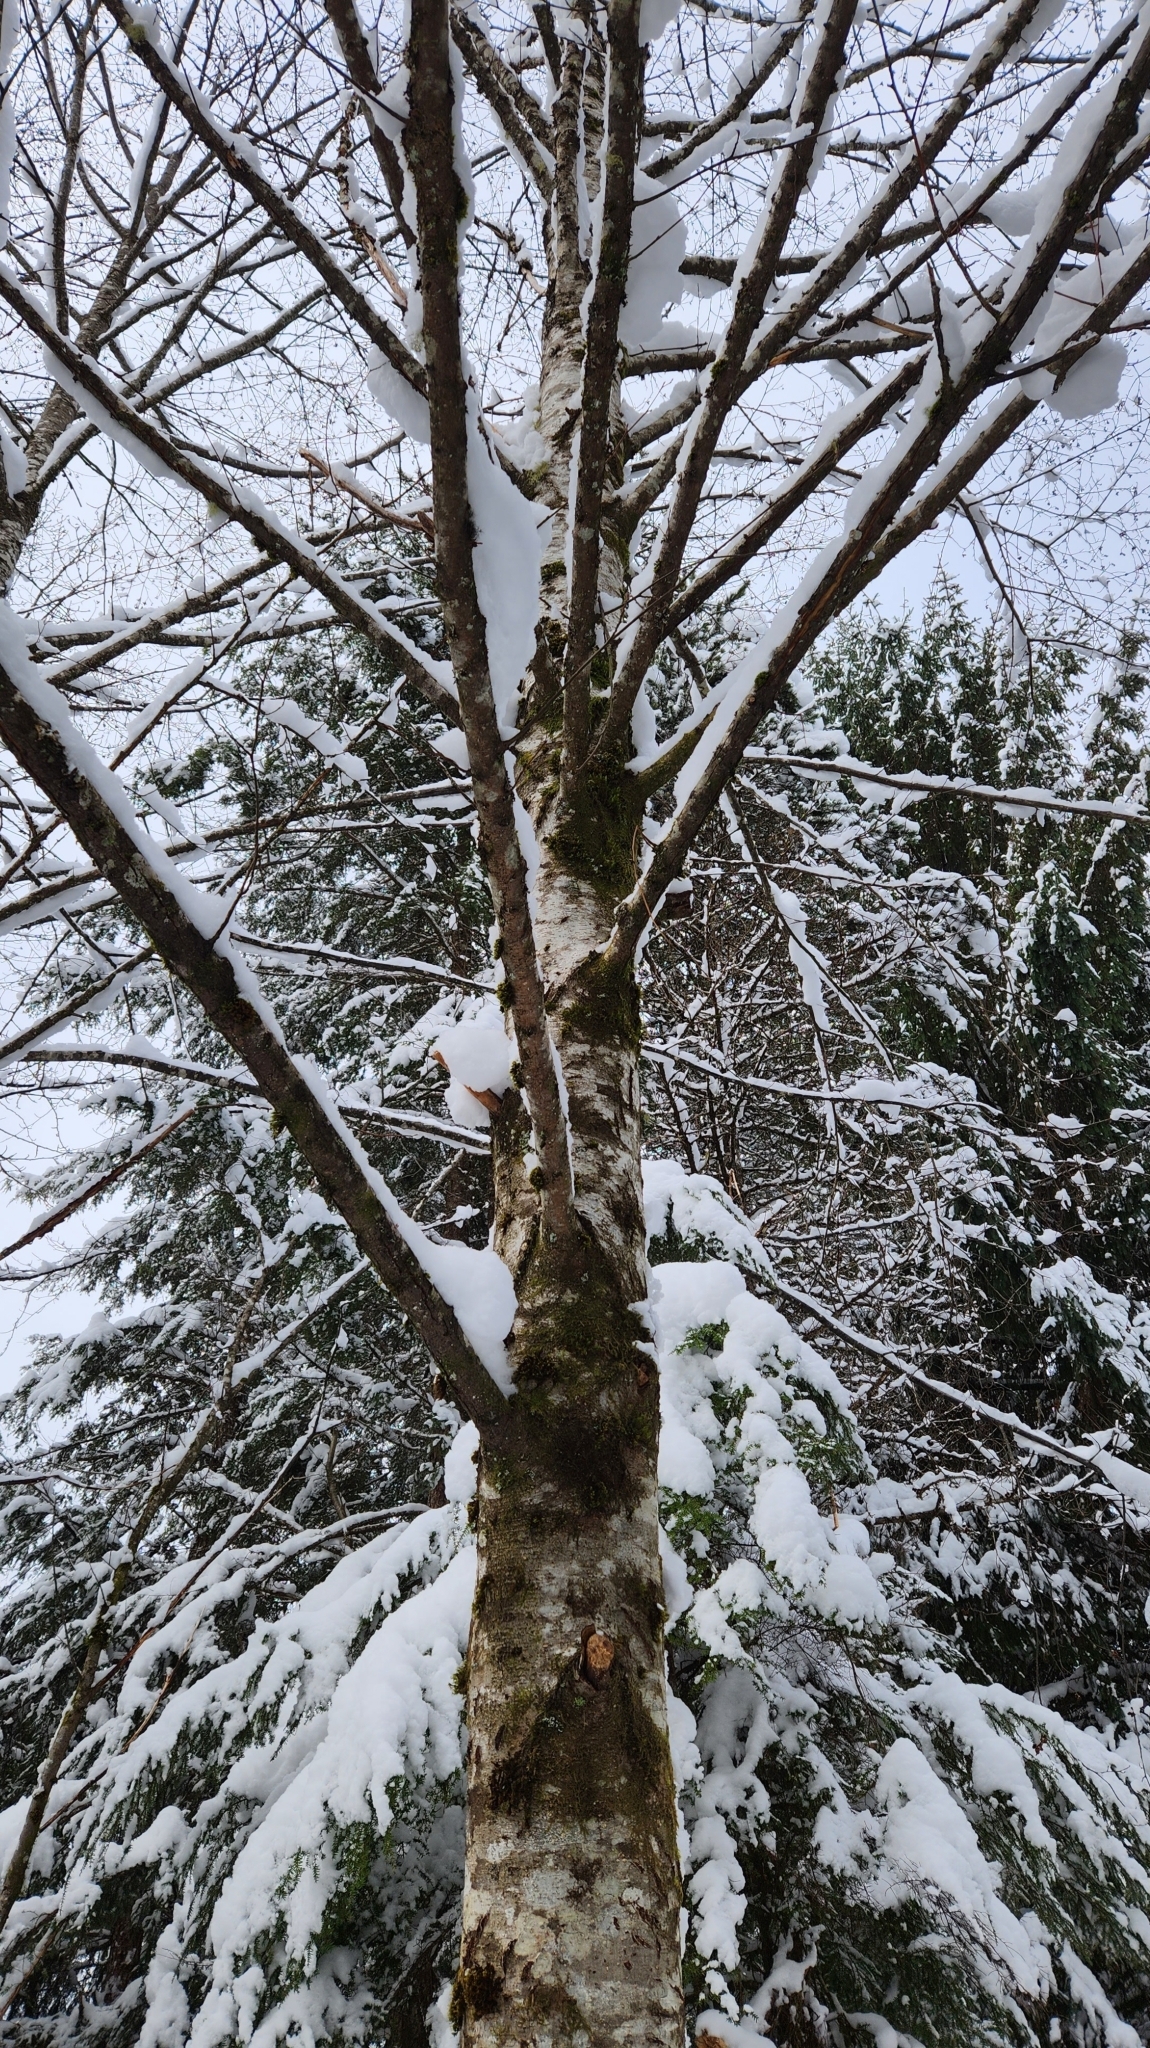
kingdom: Plantae
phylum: Tracheophyta
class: Magnoliopsida
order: Fagales
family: Betulaceae
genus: Alnus
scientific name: Alnus rubra
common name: Red alder
